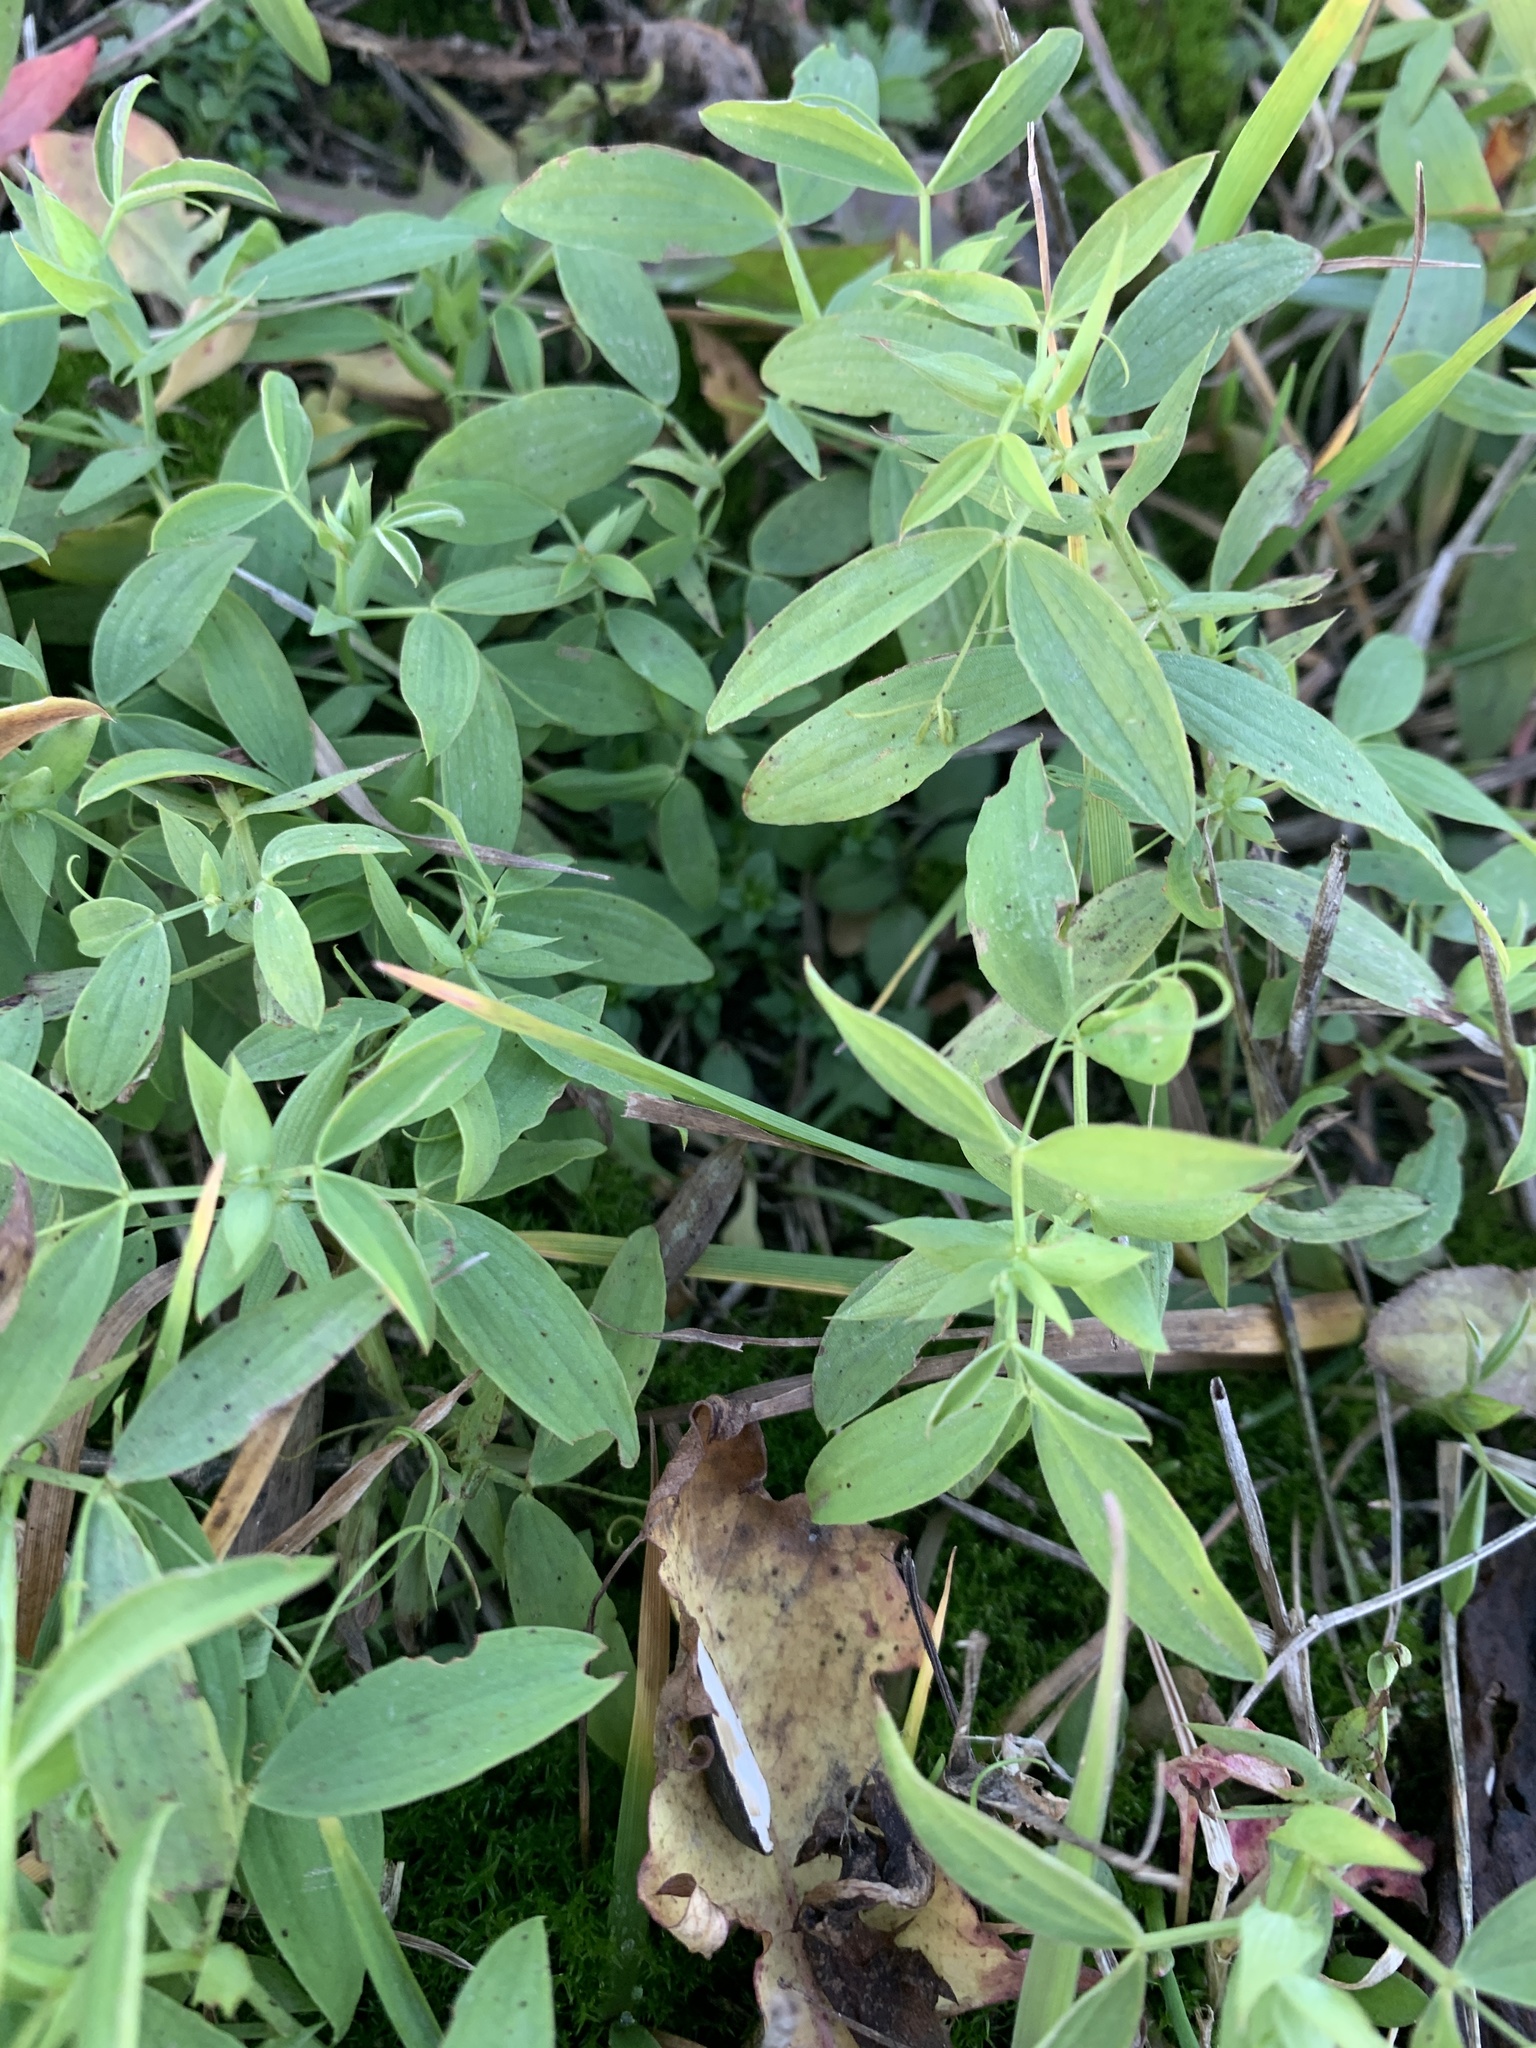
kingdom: Plantae
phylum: Tracheophyta
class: Magnoliopsida
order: Fabales
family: Fabaceae
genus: Lathyrus
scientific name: Lathyrus pratensis
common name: Meadow vetchling
